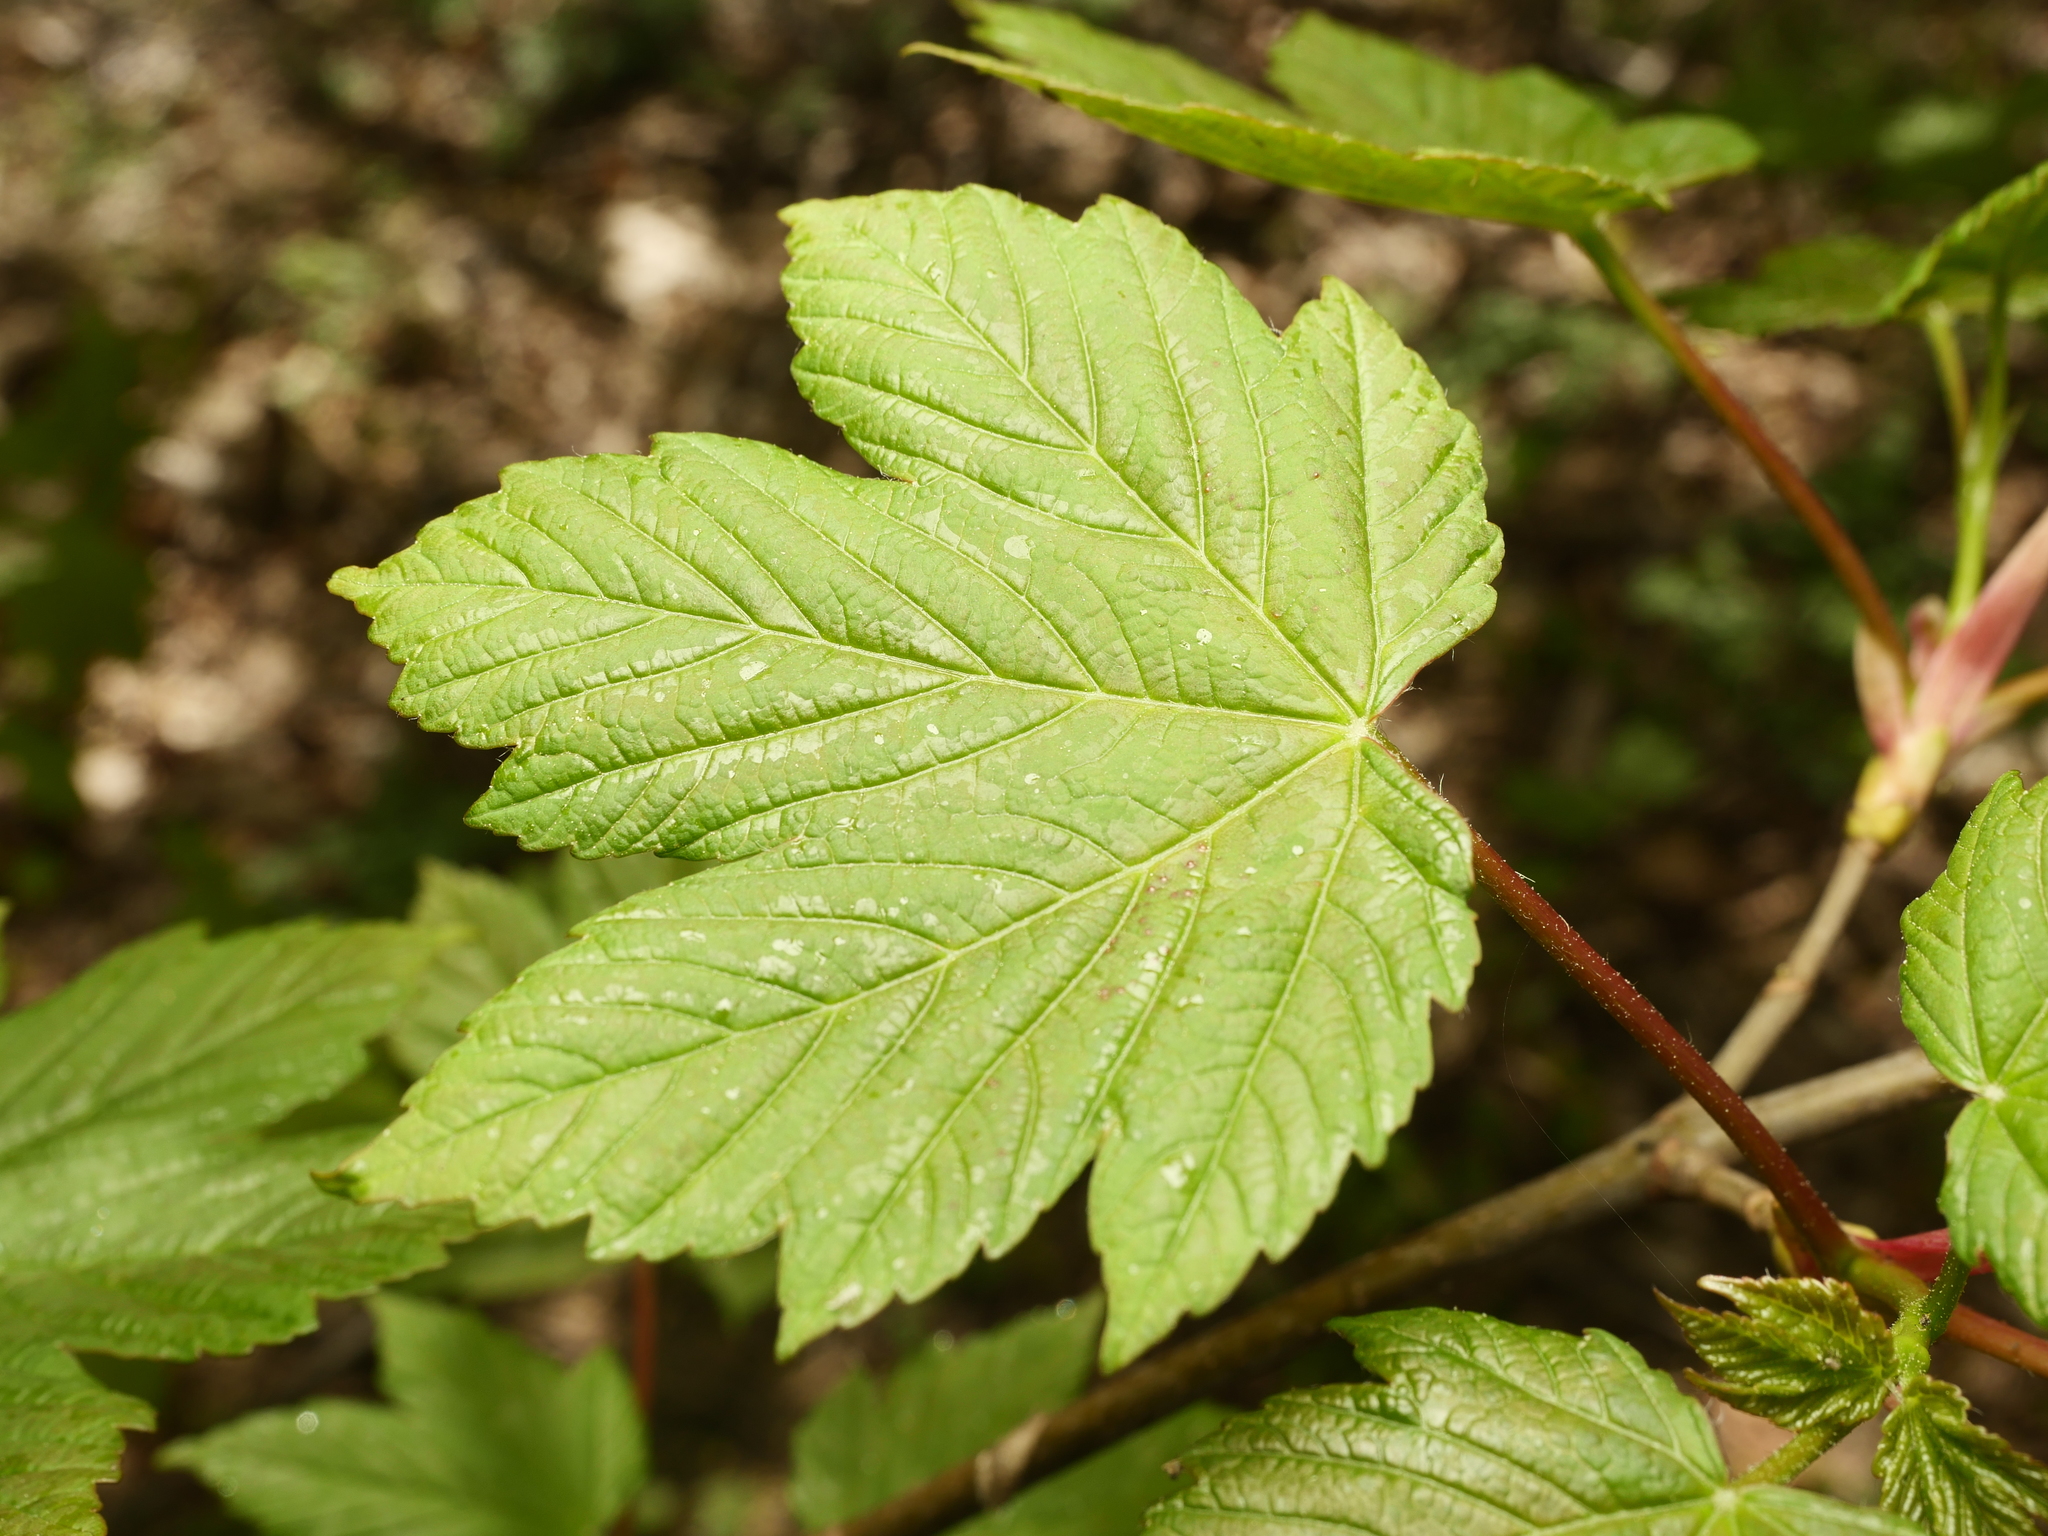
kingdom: Plantae
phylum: Tracheophyta
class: Magnoliopsida
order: Sapindales
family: Sapindaceae
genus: Acer
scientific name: Acer pseudoplatanus
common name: Sycamore
